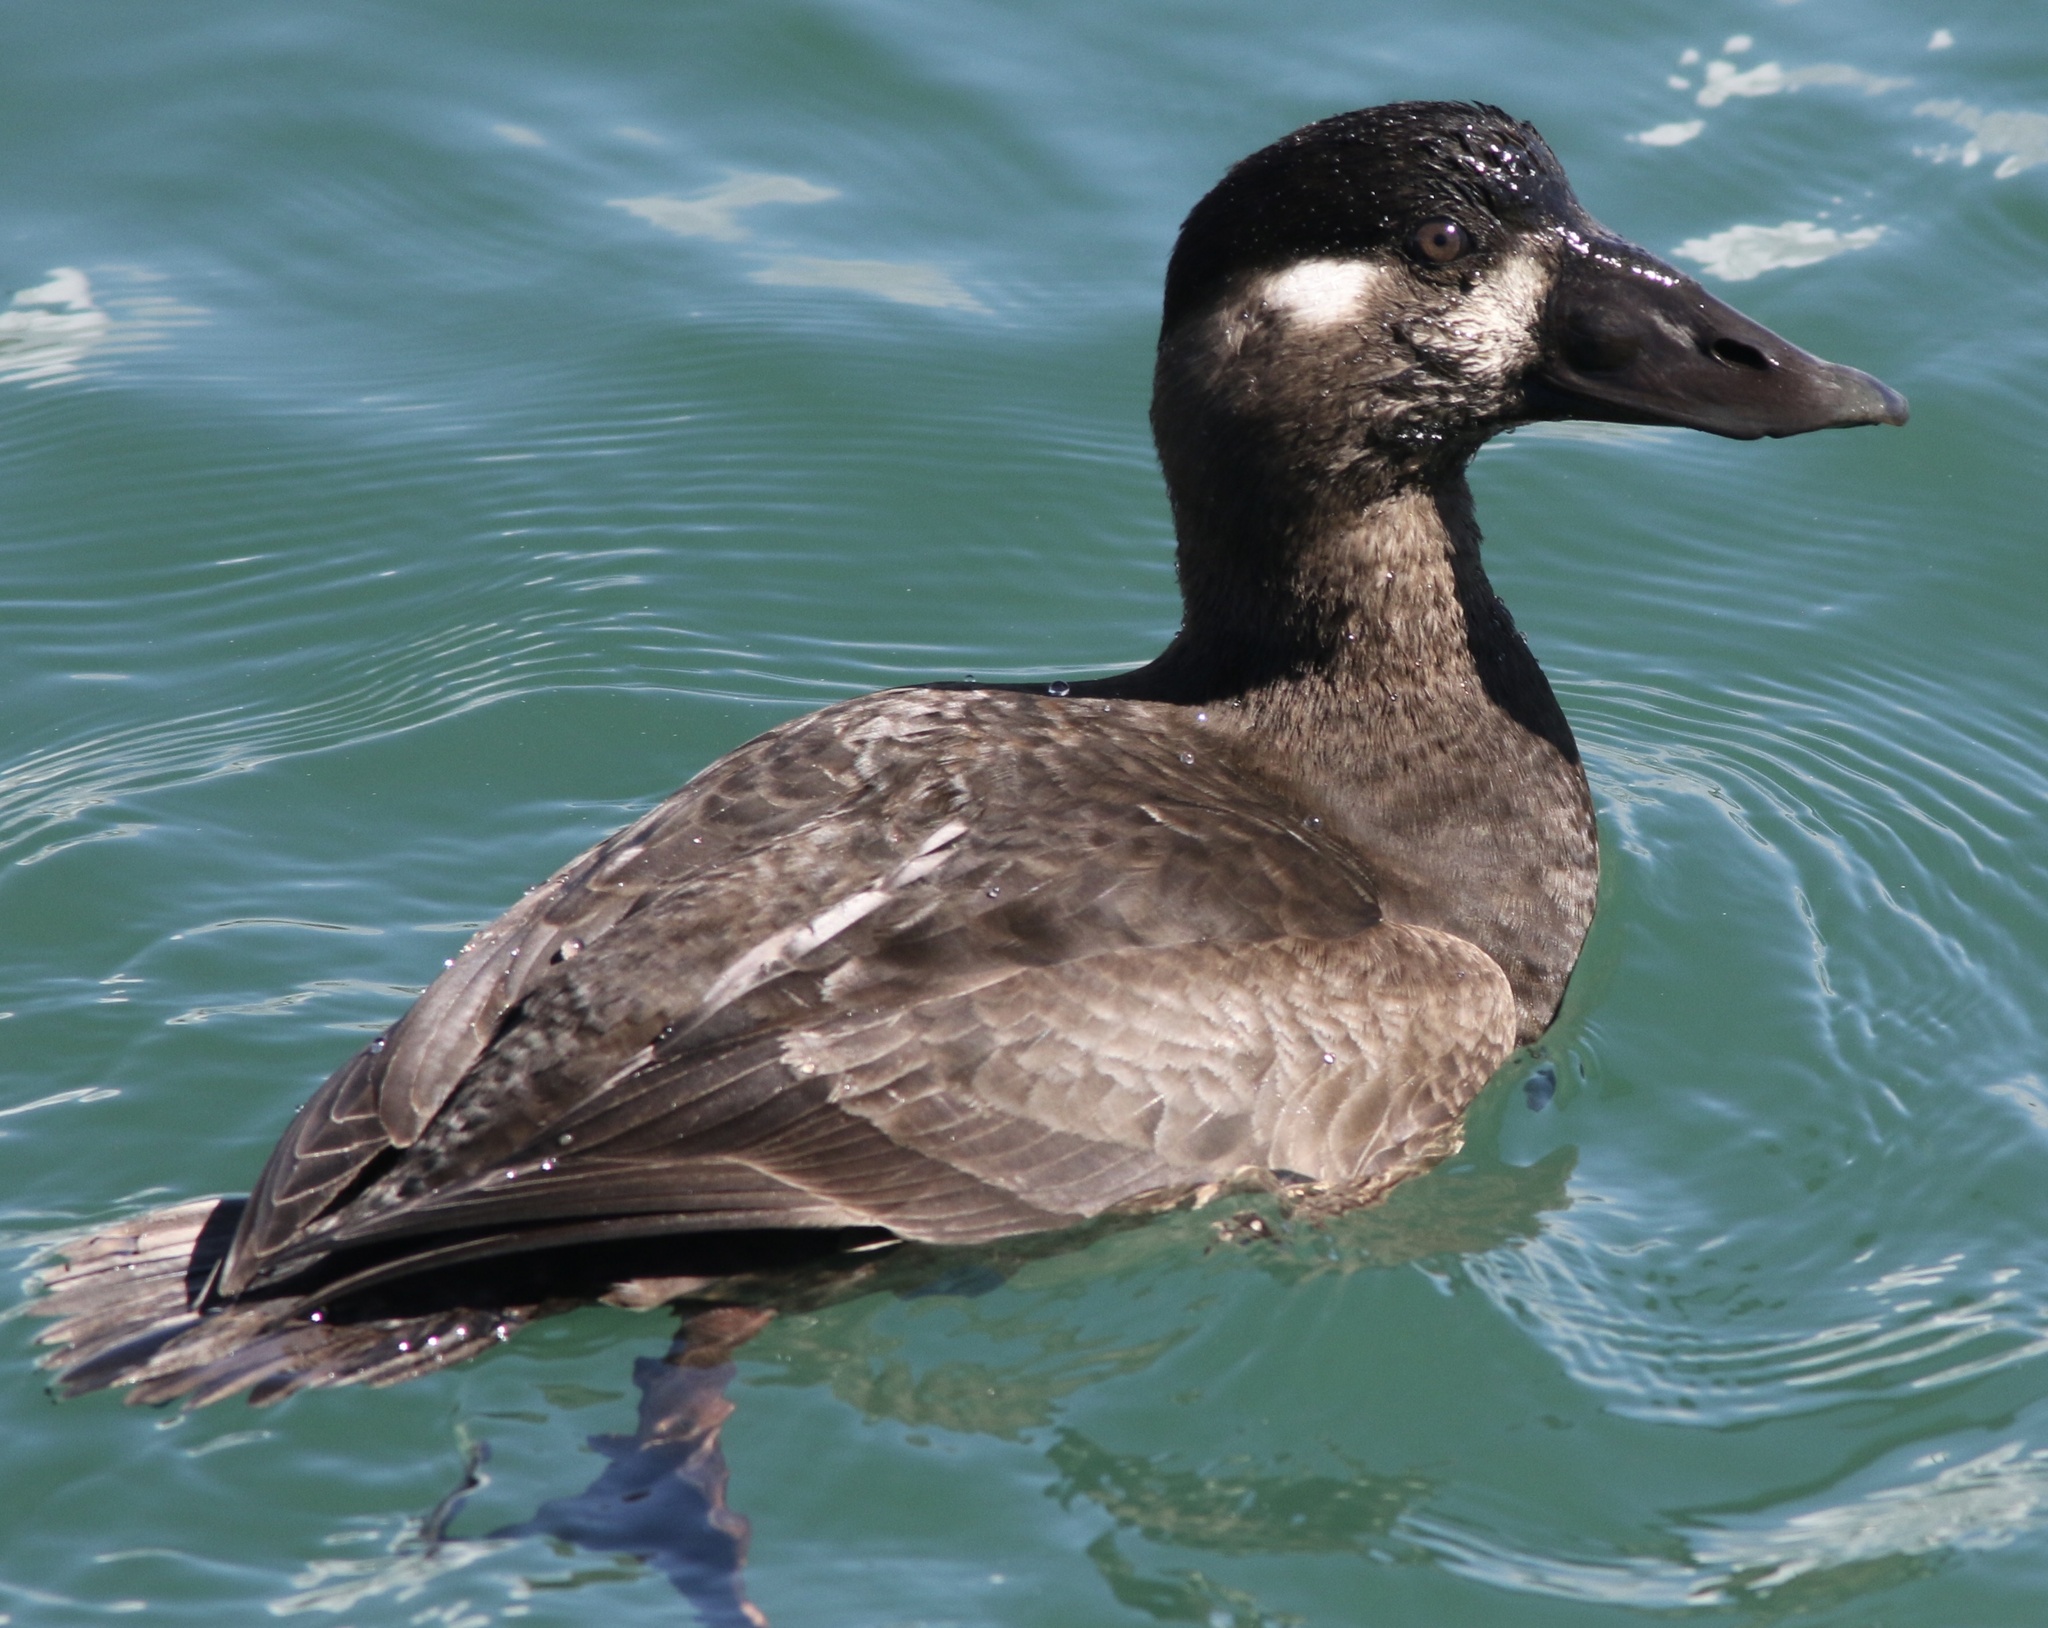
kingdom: Animalia
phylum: Chordata
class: Aves
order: Anseriformes
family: Anatidae
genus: Melanitta
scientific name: Melanitta perspicillata
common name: Surf scoter
